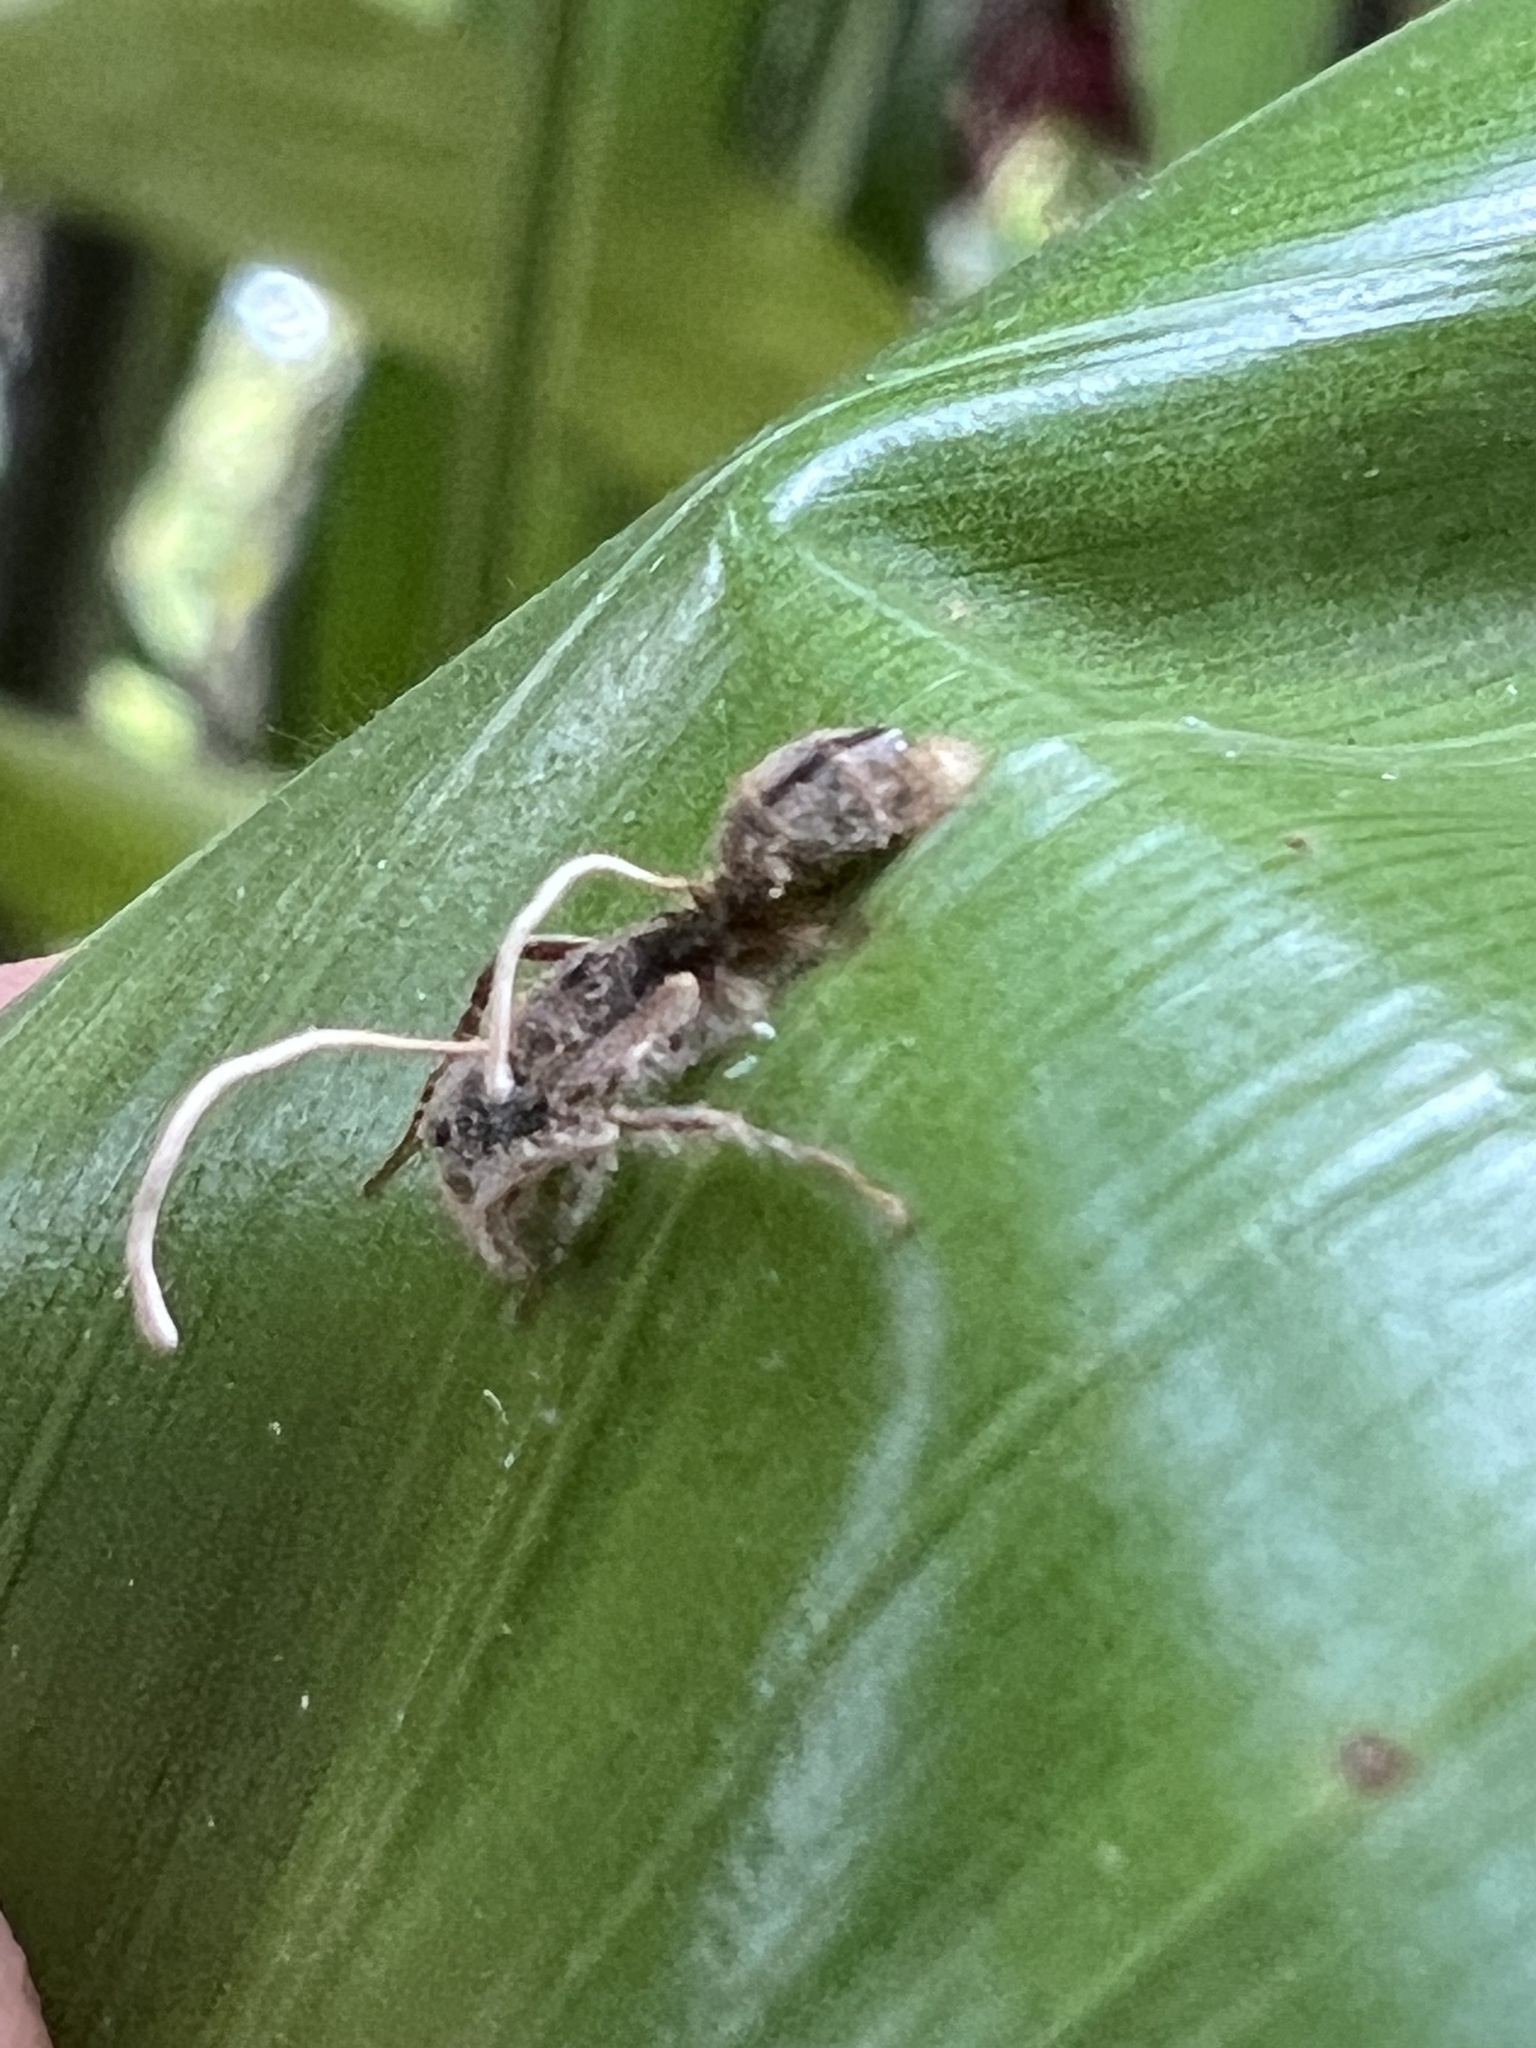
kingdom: Fungi
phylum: Ascomycota
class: Sordariomycetes
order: Hypocreales
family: Ophiocordycipitaceae
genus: Ophiocordyceps
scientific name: Ophiocordyceps lloydii
